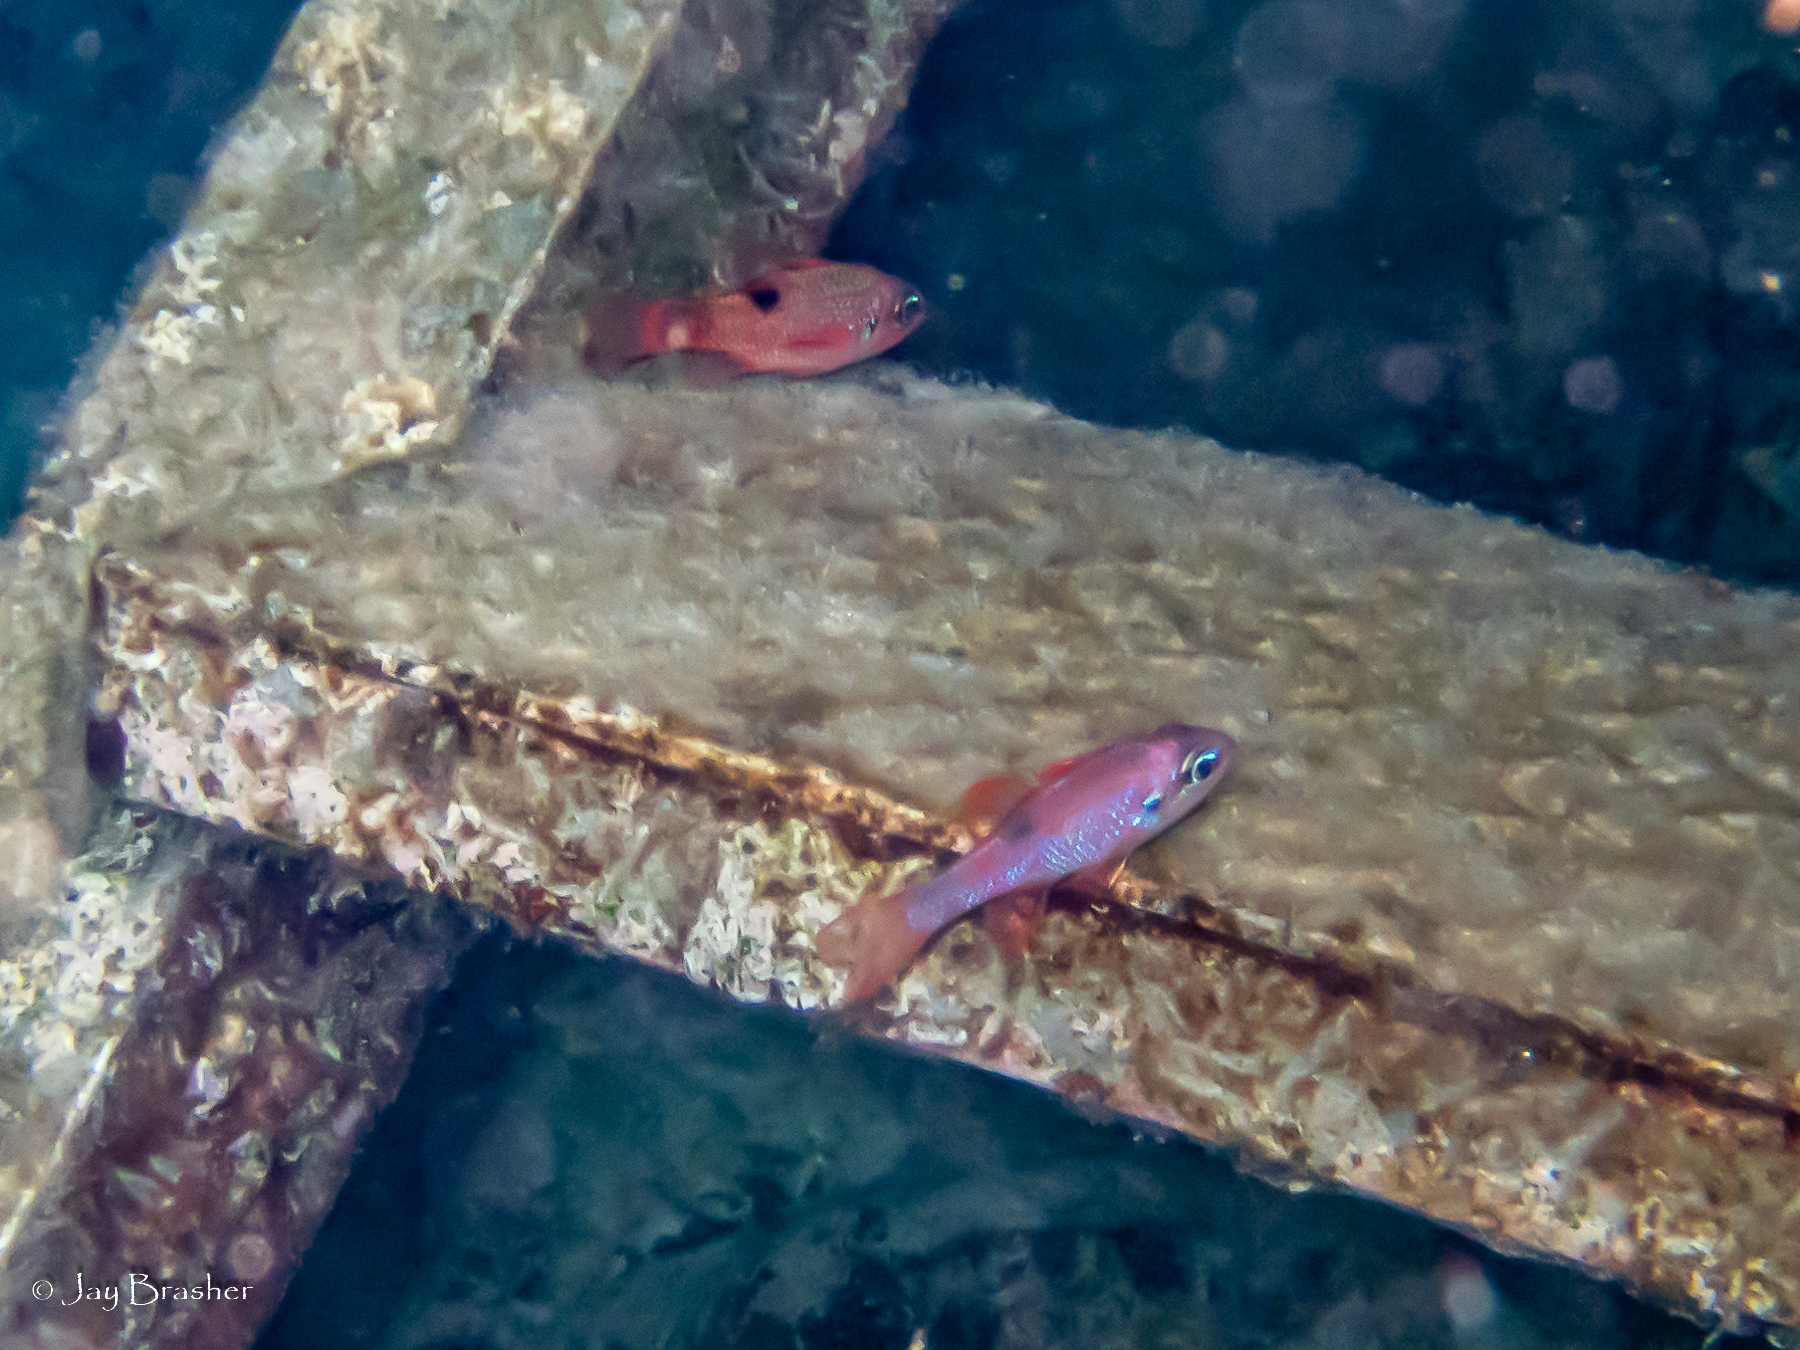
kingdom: Animalia
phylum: Chordata
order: Perciformes
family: Apogonidae
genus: Apogon
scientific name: Apogon maculatus
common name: Flamefish
